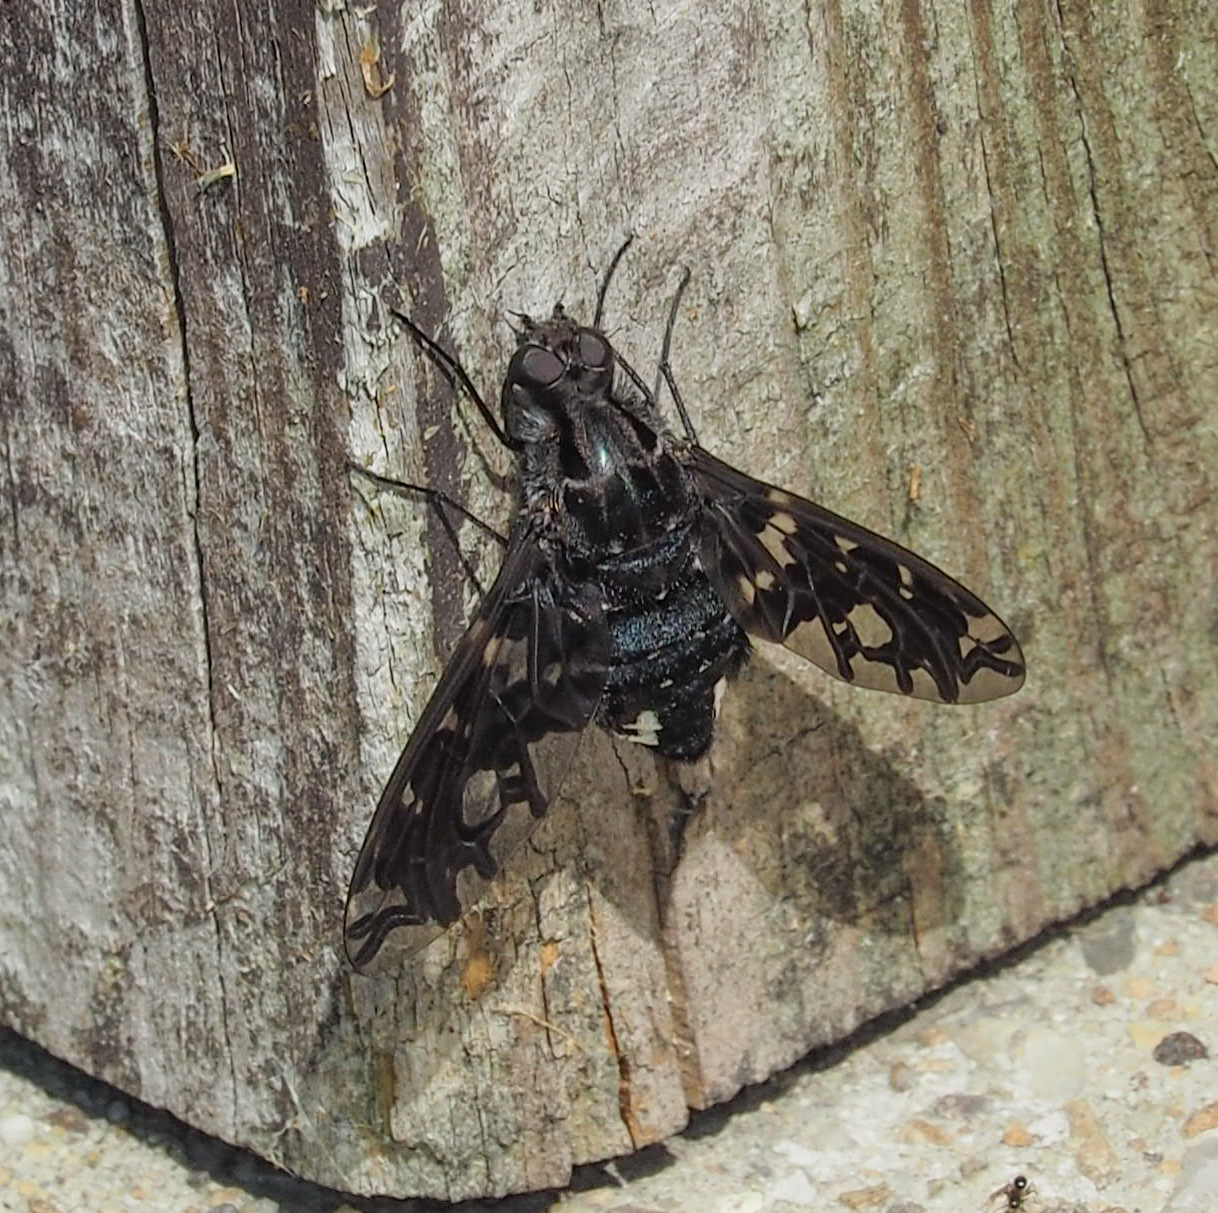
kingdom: Animalia
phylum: Arthropoda
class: Insecta
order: Diptera
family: Bombyliidae
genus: Xenox
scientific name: Xenox tigrinus
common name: Tiger bee fly
